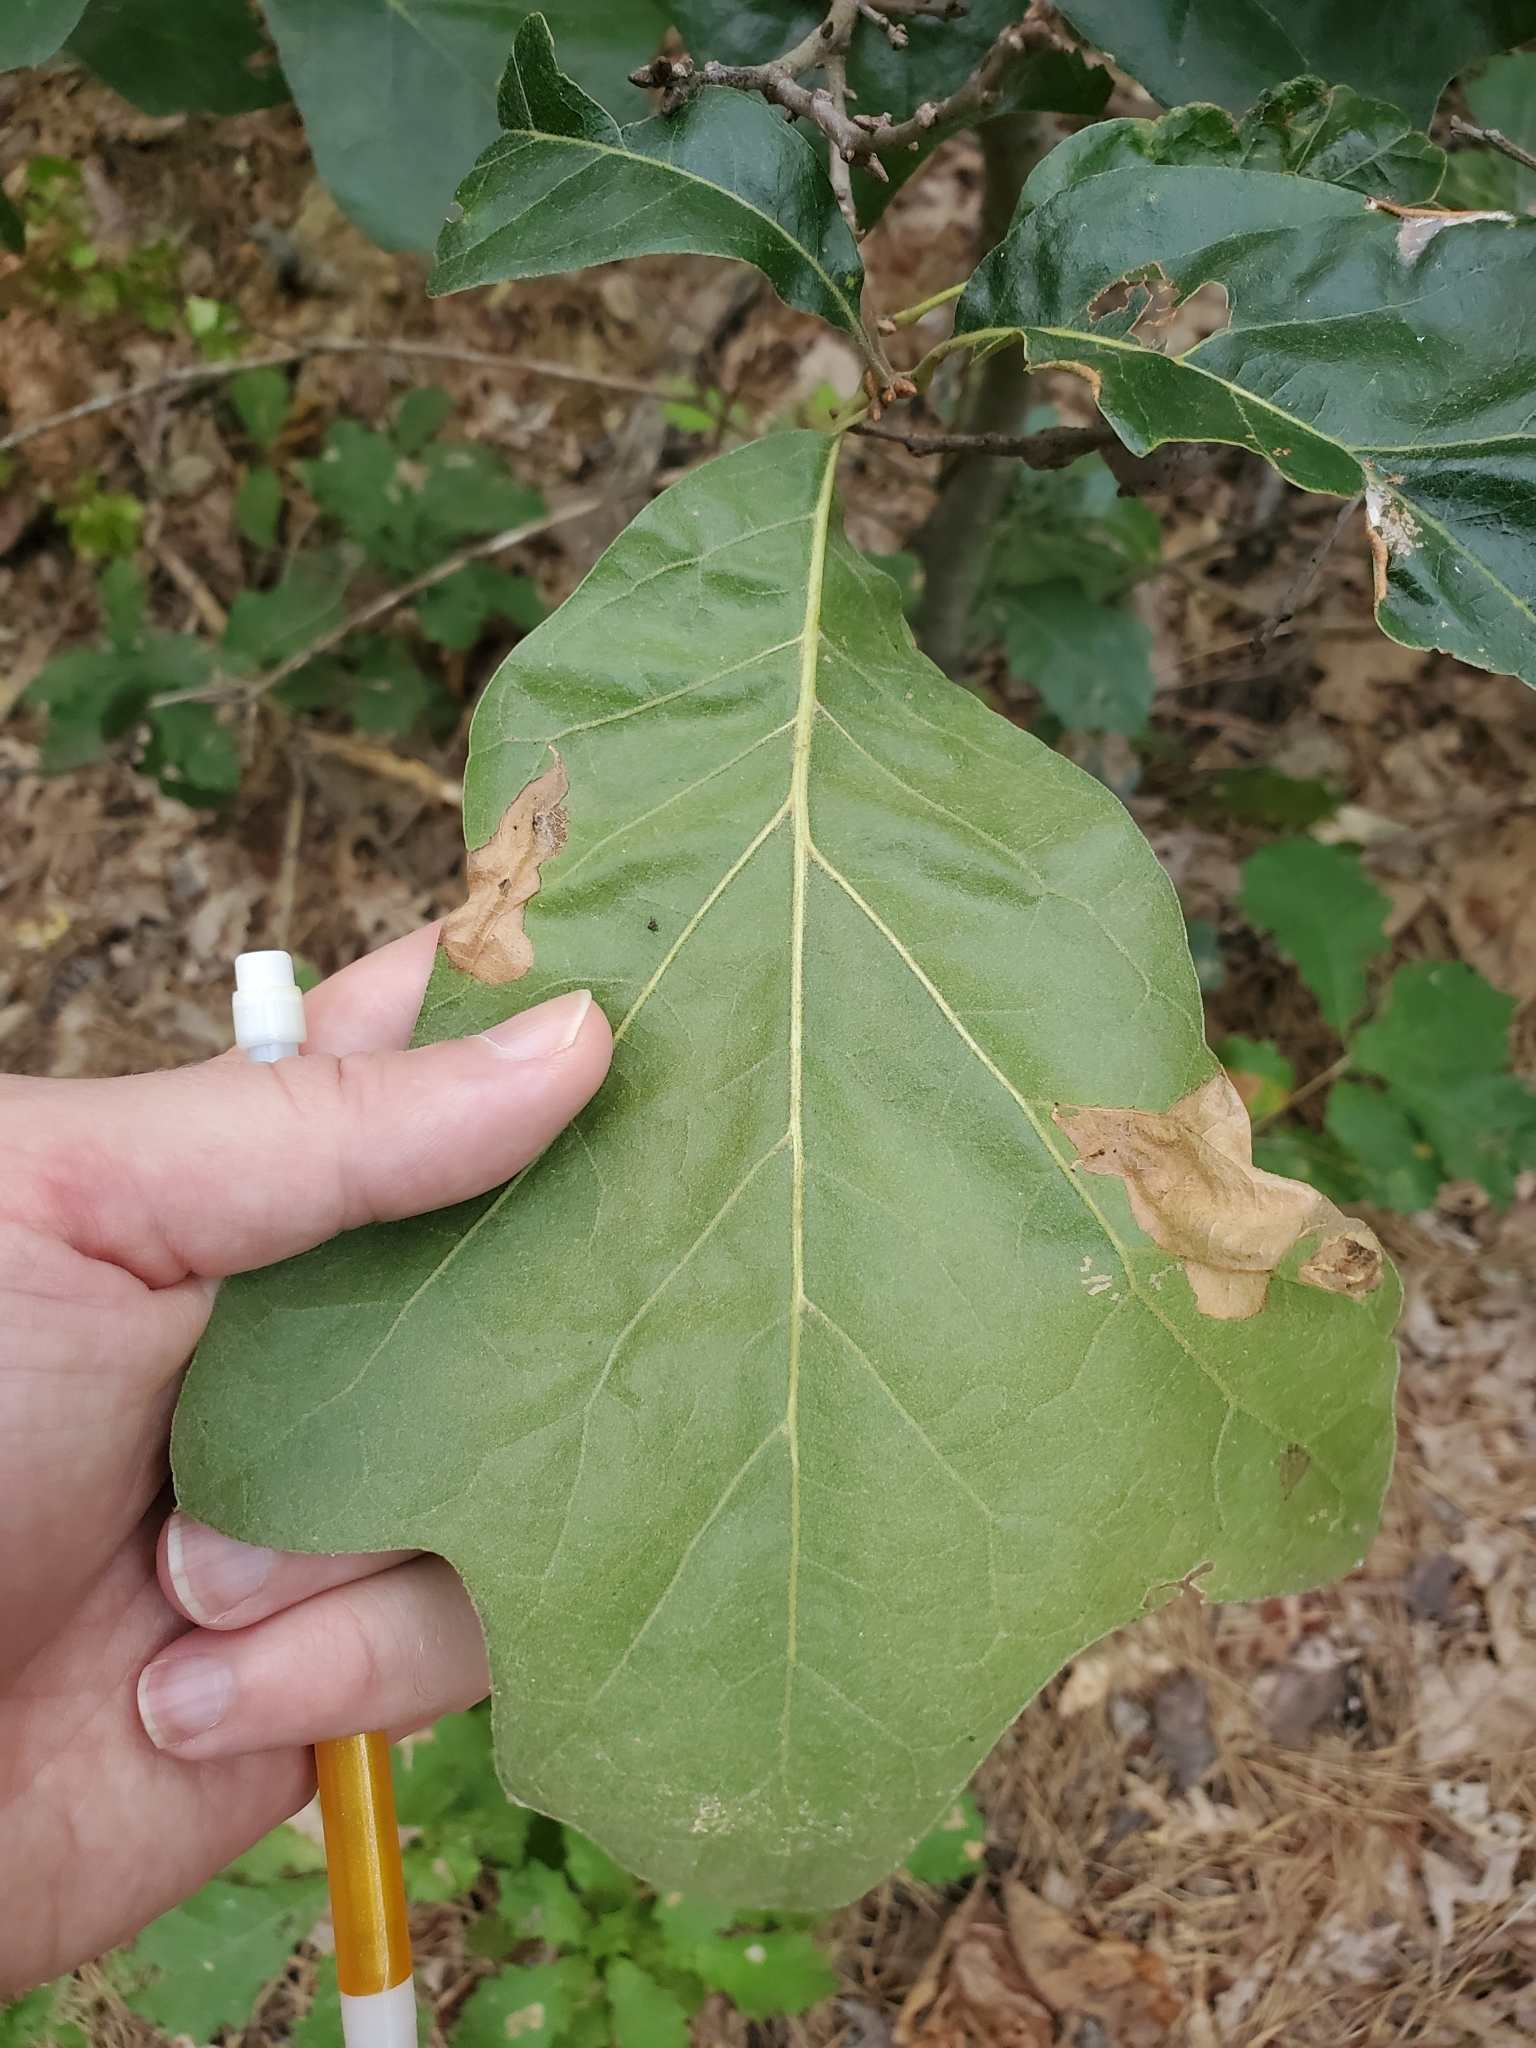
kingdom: Plantae
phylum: Tracheophyta
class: Magnoliopsida
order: Fagales
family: Fagaceae
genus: Quercus
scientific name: Quercus marilandica
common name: Blackjack oak
